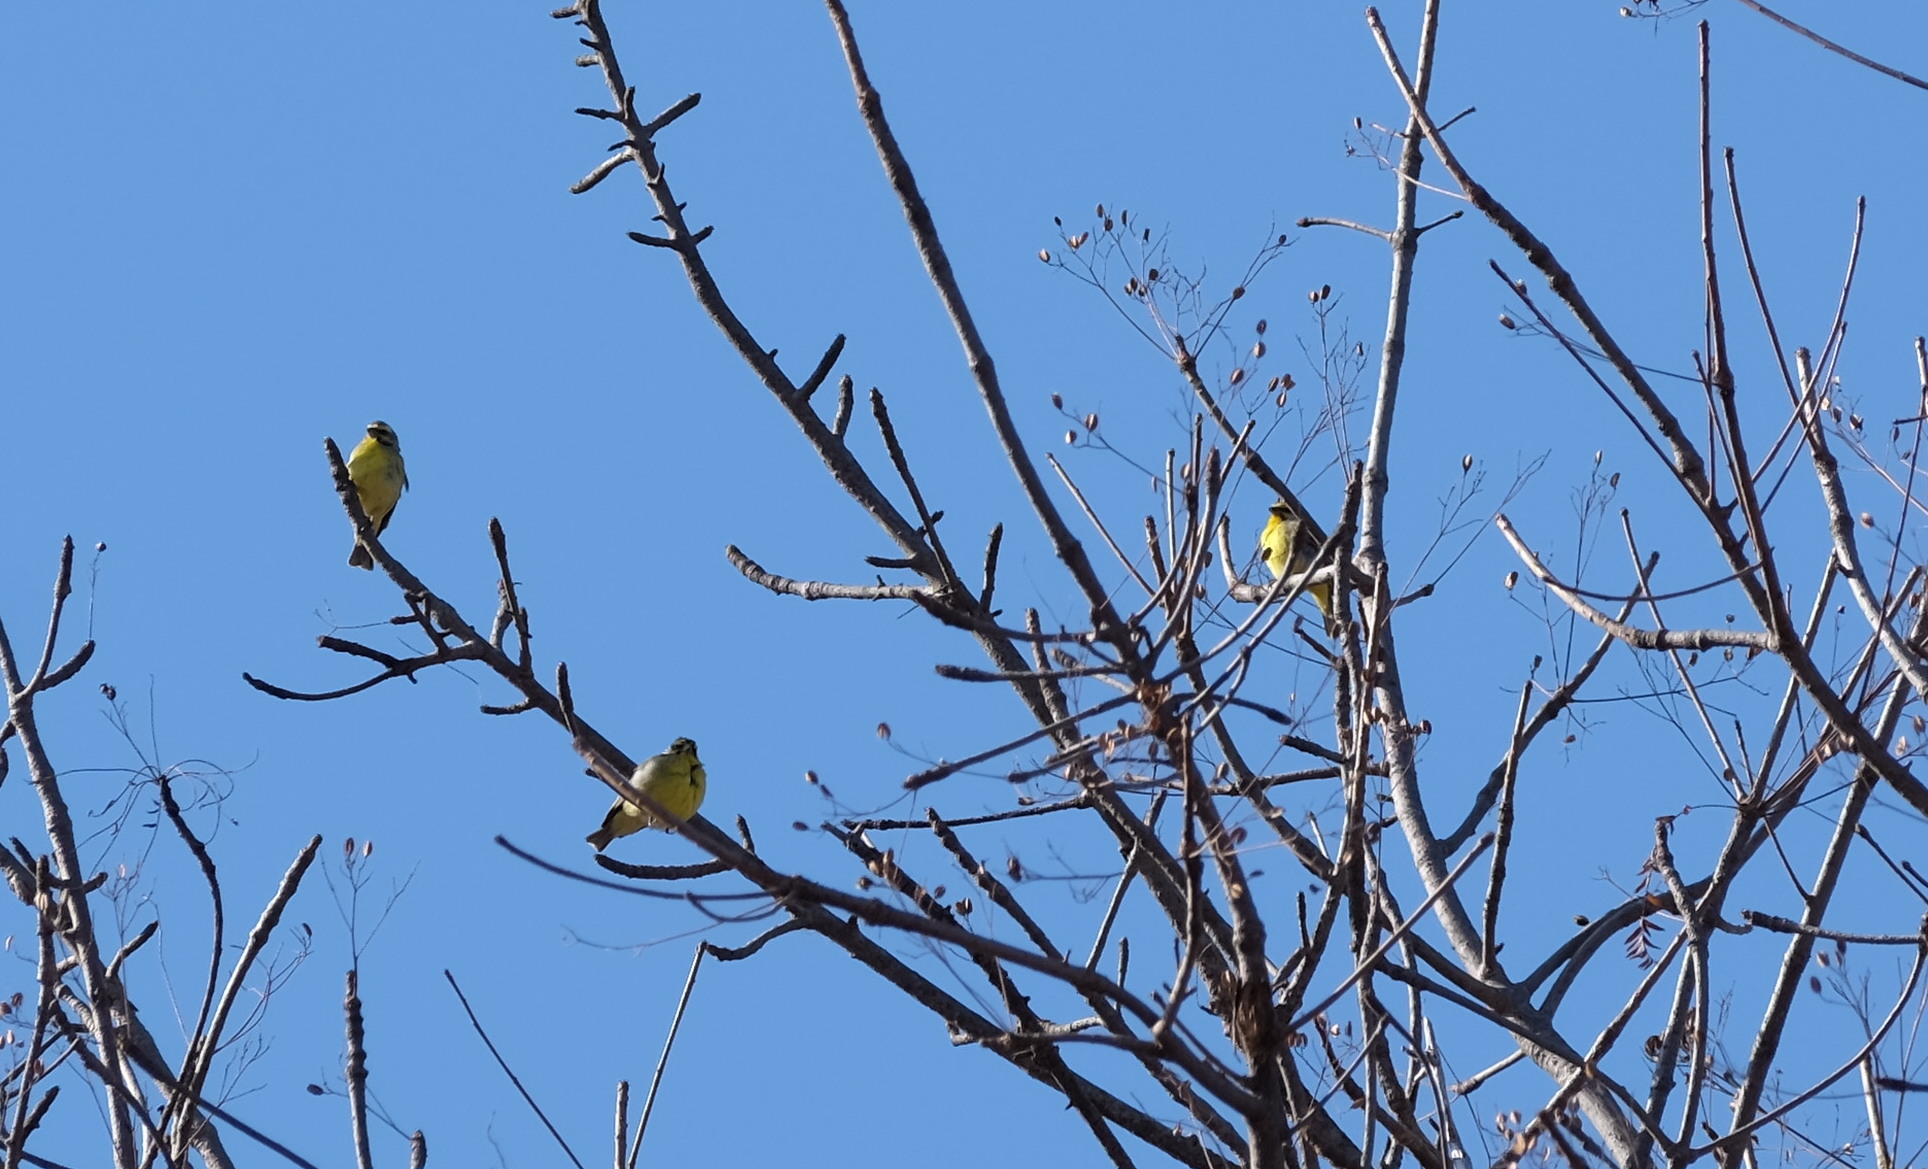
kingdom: Animalia
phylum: Chordata
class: Aves
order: Passeriformes
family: Fringillidae
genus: Crithagra
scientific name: Crithagra mozambica
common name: Yellow-fronted canary
